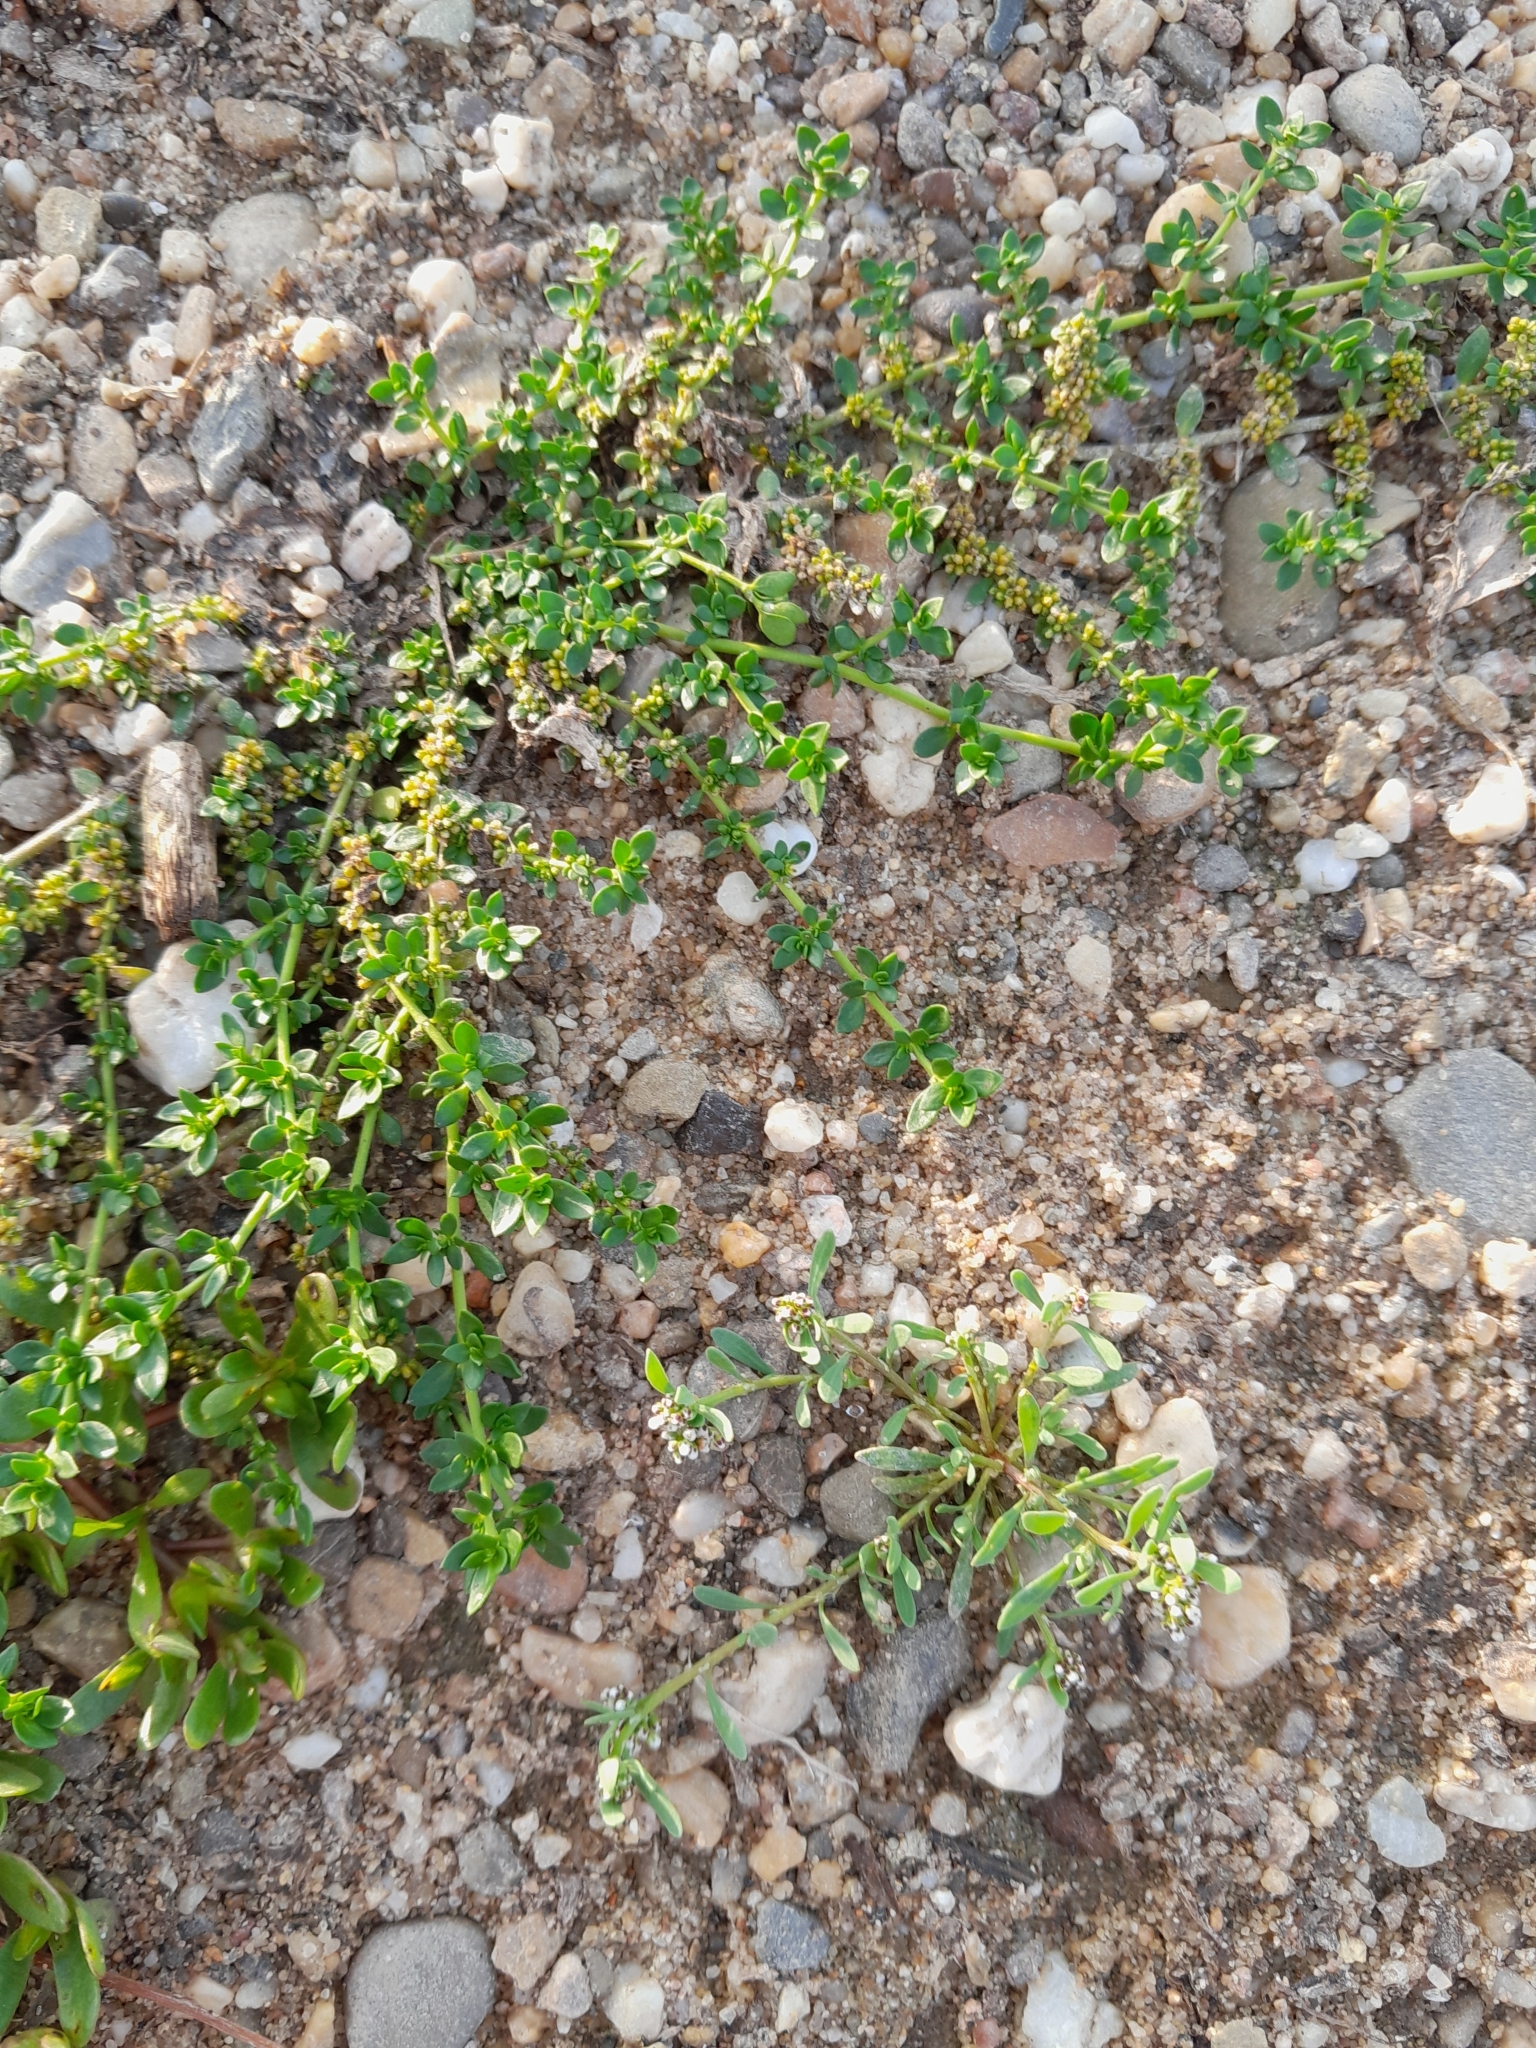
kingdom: Plantae
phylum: Tracheophyta
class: Magnoliopsida
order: Caryophyllales
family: Caryophyllaceae
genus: Herniaria
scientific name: Herniaria glabra
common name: Smooth rupturewort
